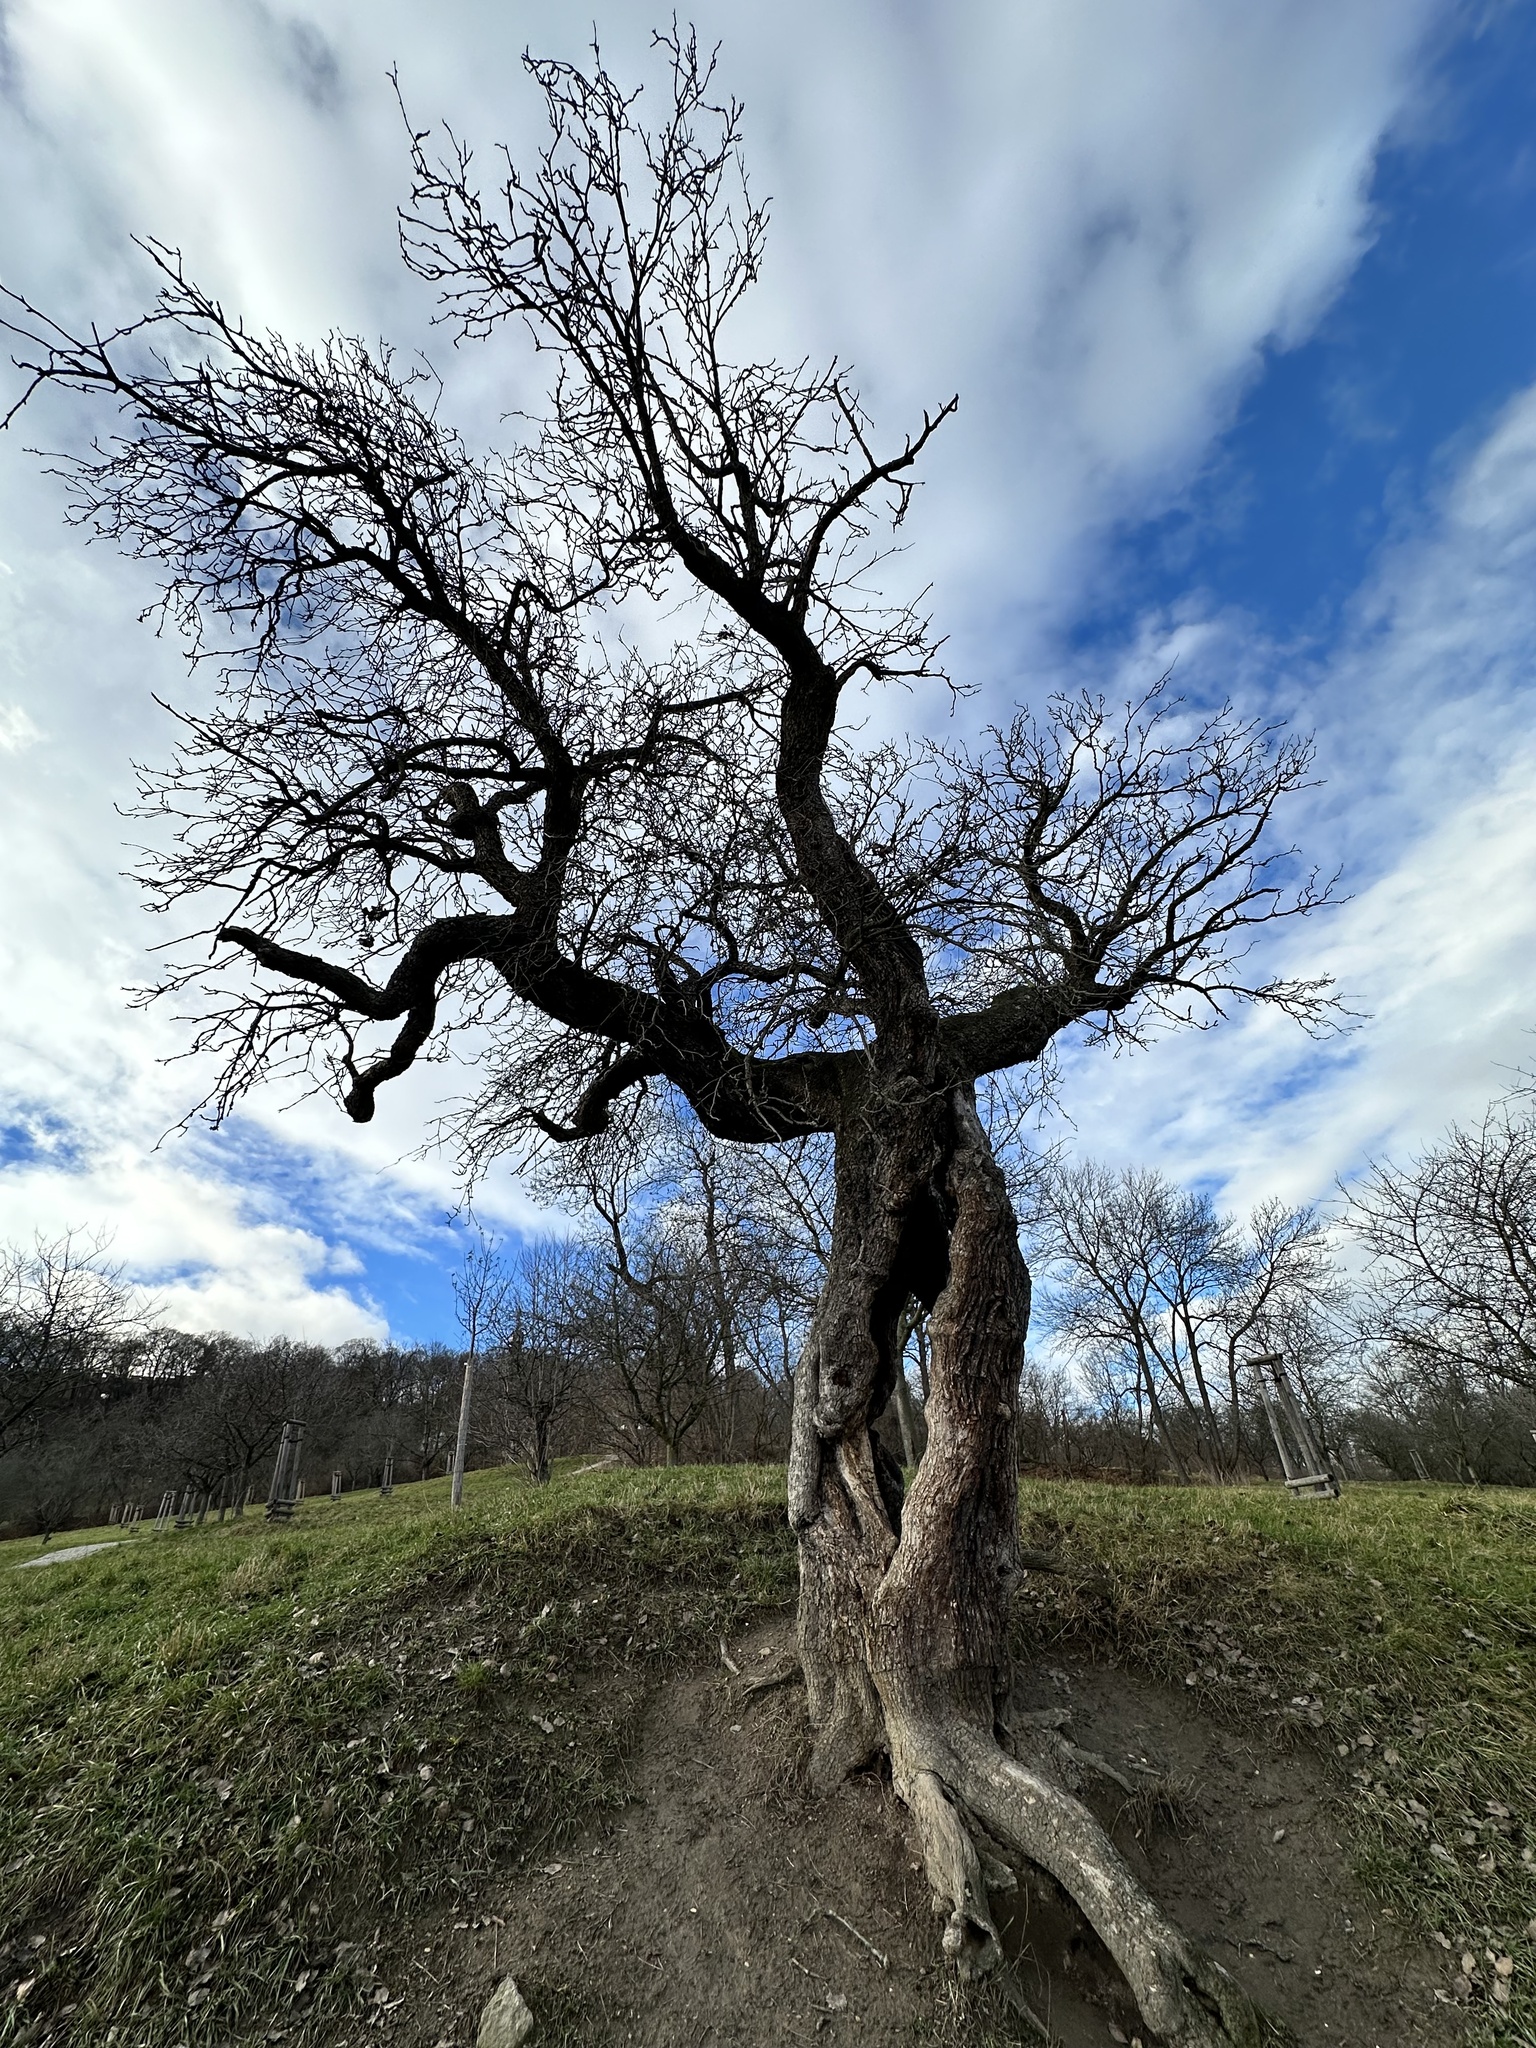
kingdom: Plantae
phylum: Tracheophyta
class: Magnoliopsida
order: Rosales
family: Rosaceae
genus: Malus
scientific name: Malus domestica
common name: Apple
